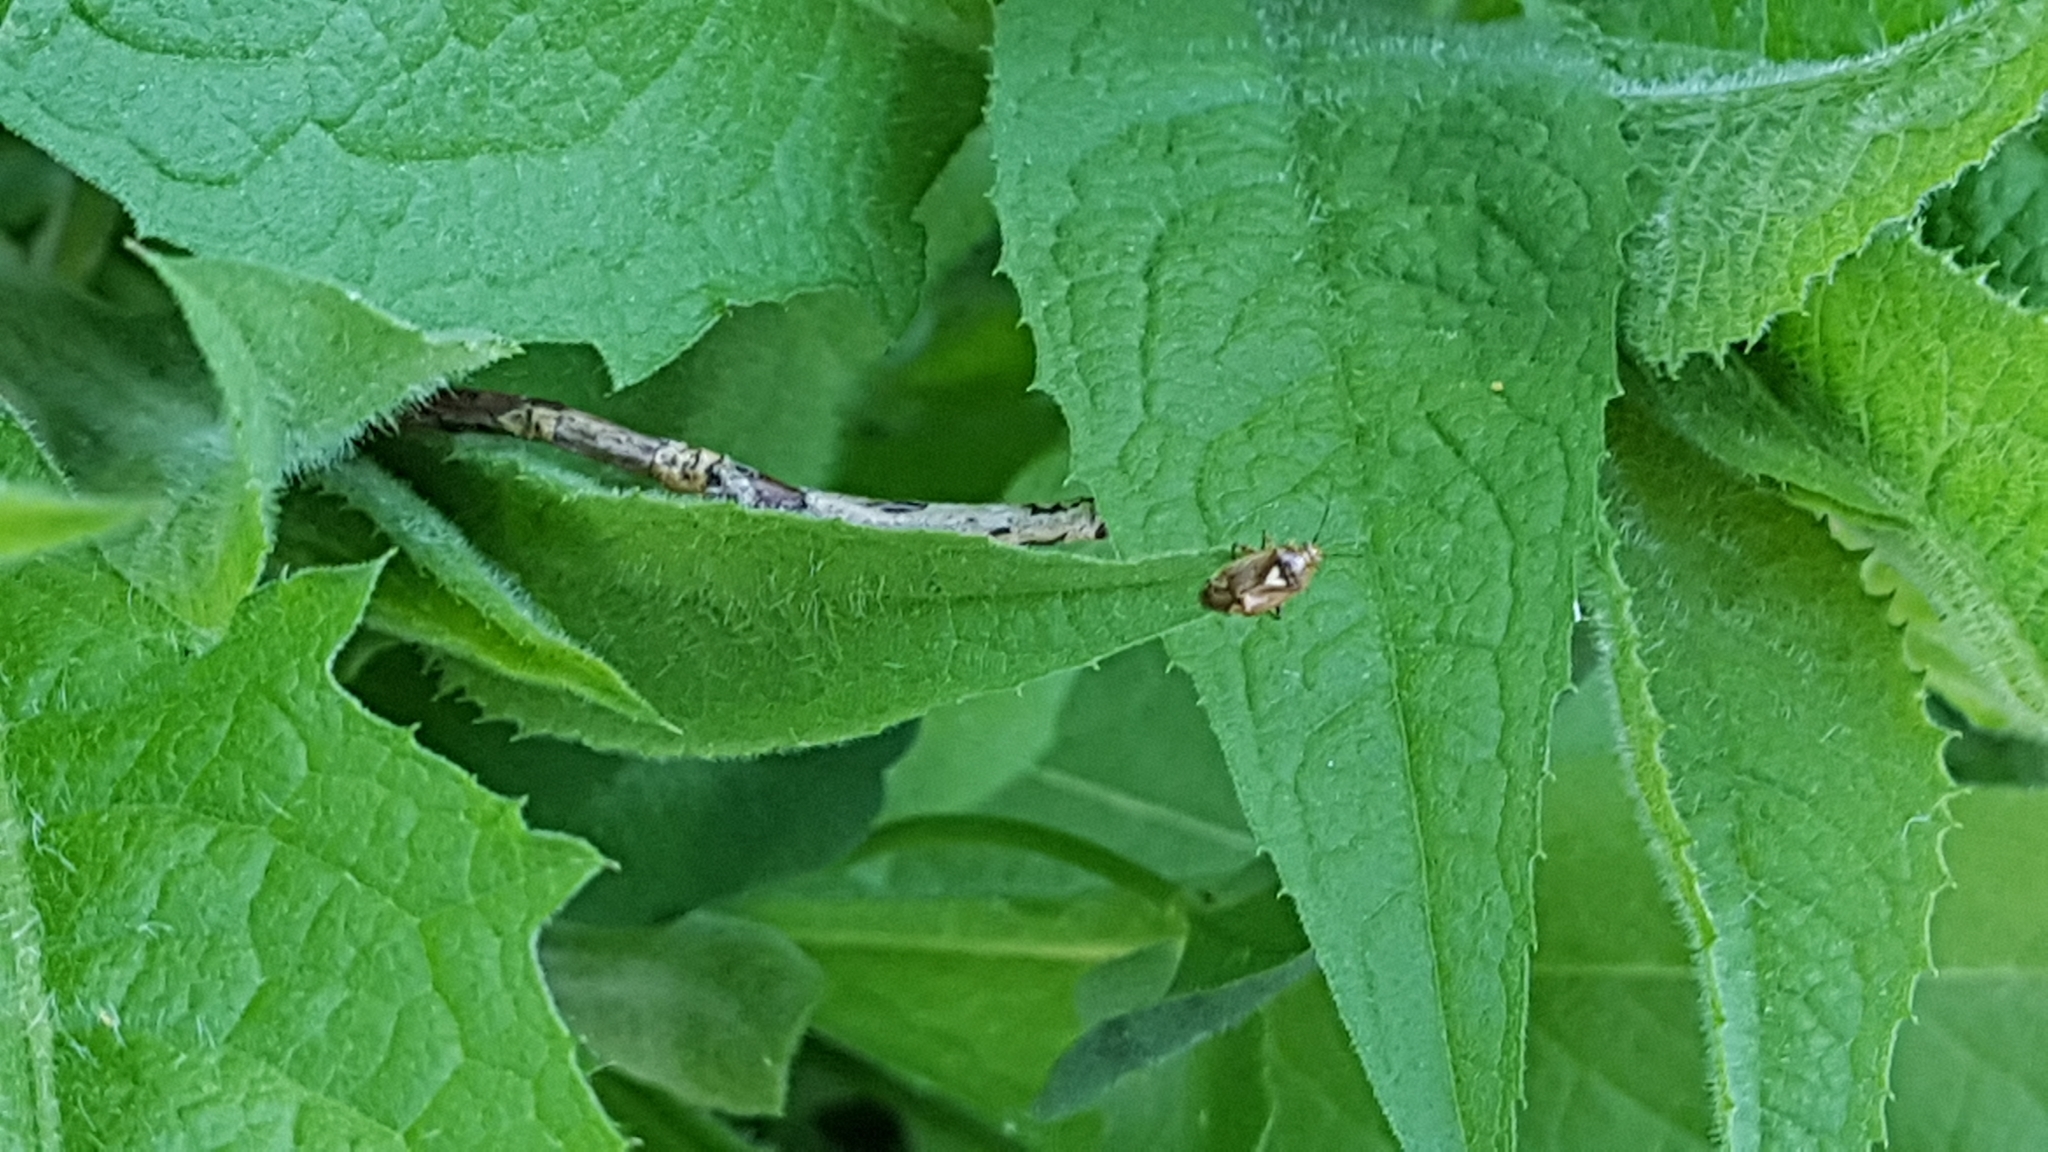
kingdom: Animalia
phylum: Arthropoda
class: Insecta
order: Hemiptera
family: Miridae
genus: Lygus
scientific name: Lygus pratensis
